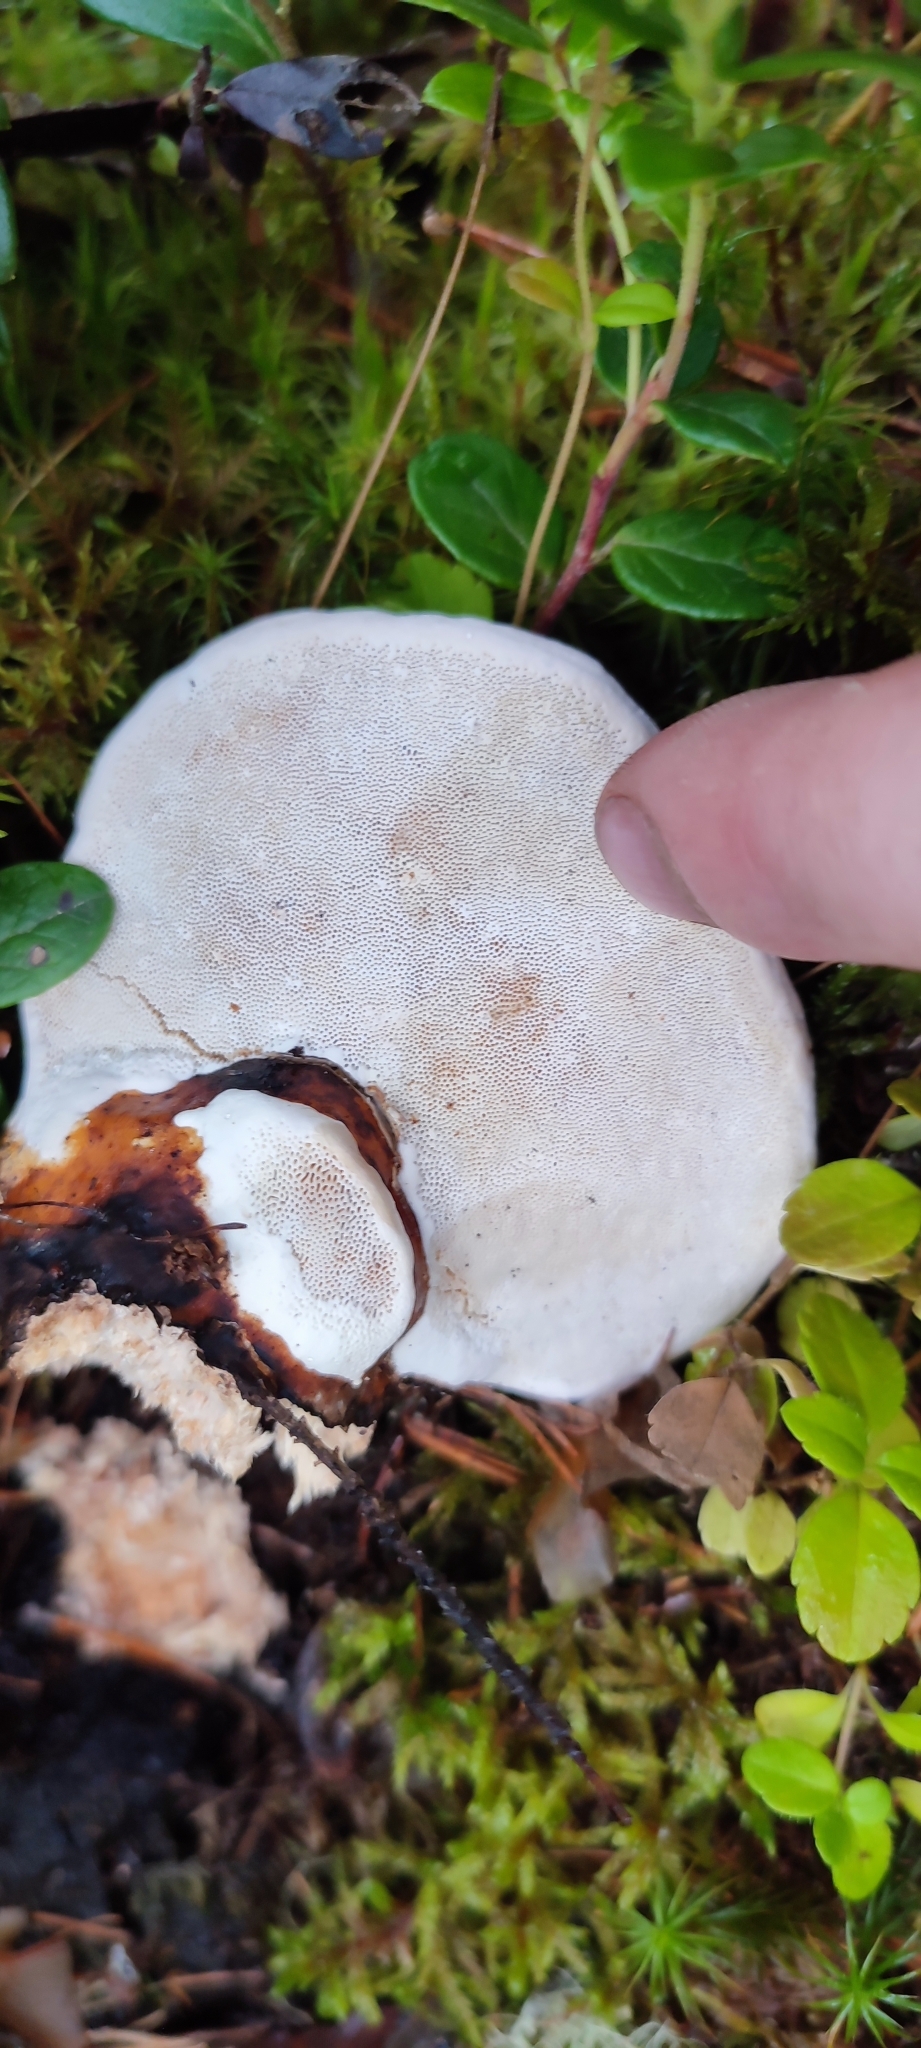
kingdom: Fungi
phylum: Basidiomycota
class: Agaricomycetes
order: Polyporales
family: Fomitopsidaceae
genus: Fomitopsis
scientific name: Fomitopsis pinicola
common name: Red-belted bracket
